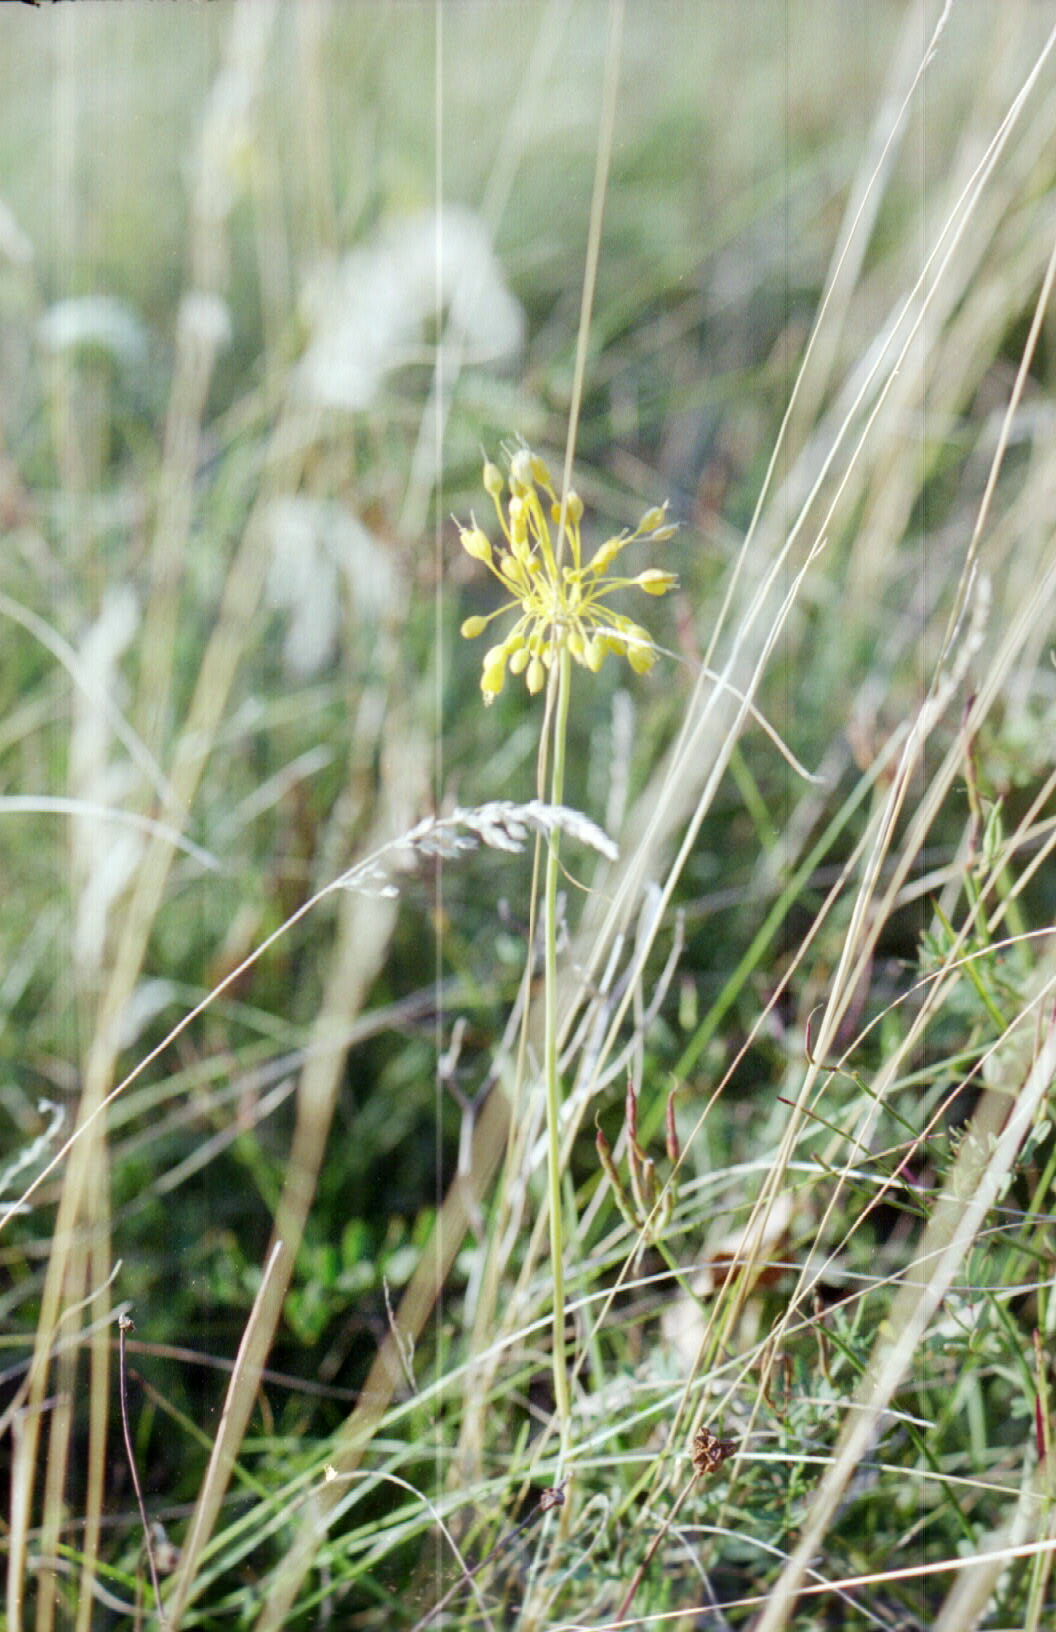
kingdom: Plantae
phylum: Tracheophyta
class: Liliopsida
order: Asparagales
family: Amaryllidaceae
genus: Allium
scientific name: Allium flavum
